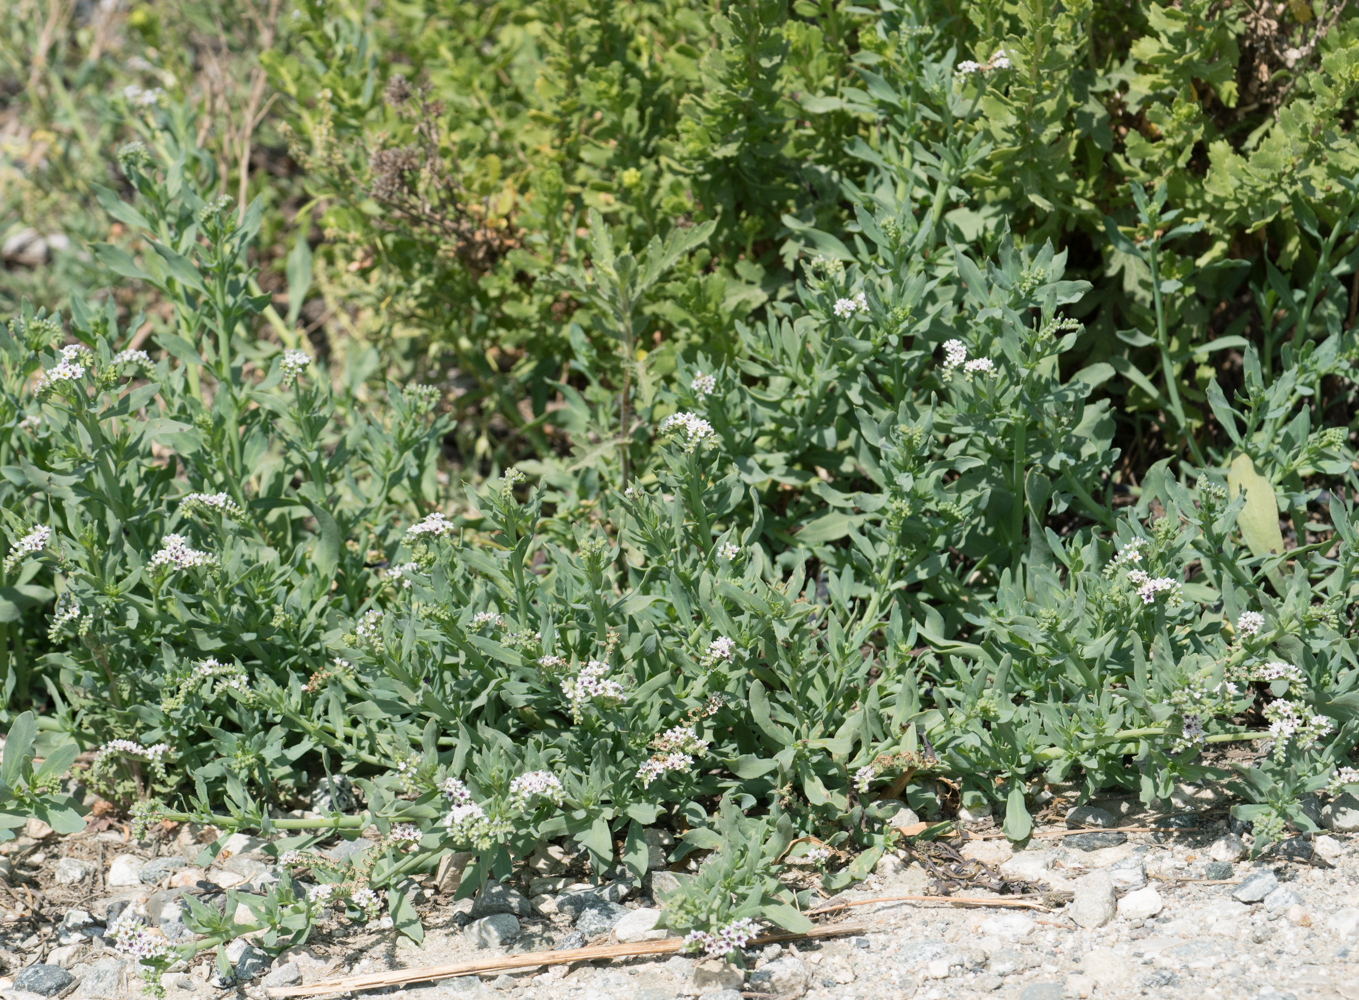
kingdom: Plantae
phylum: Tracheophyta
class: Magnoliopsida
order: Boraginales
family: Heliotropiaceae
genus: Heliotropium
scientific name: Heliotropium curassavicum
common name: Seaside heliotrope
